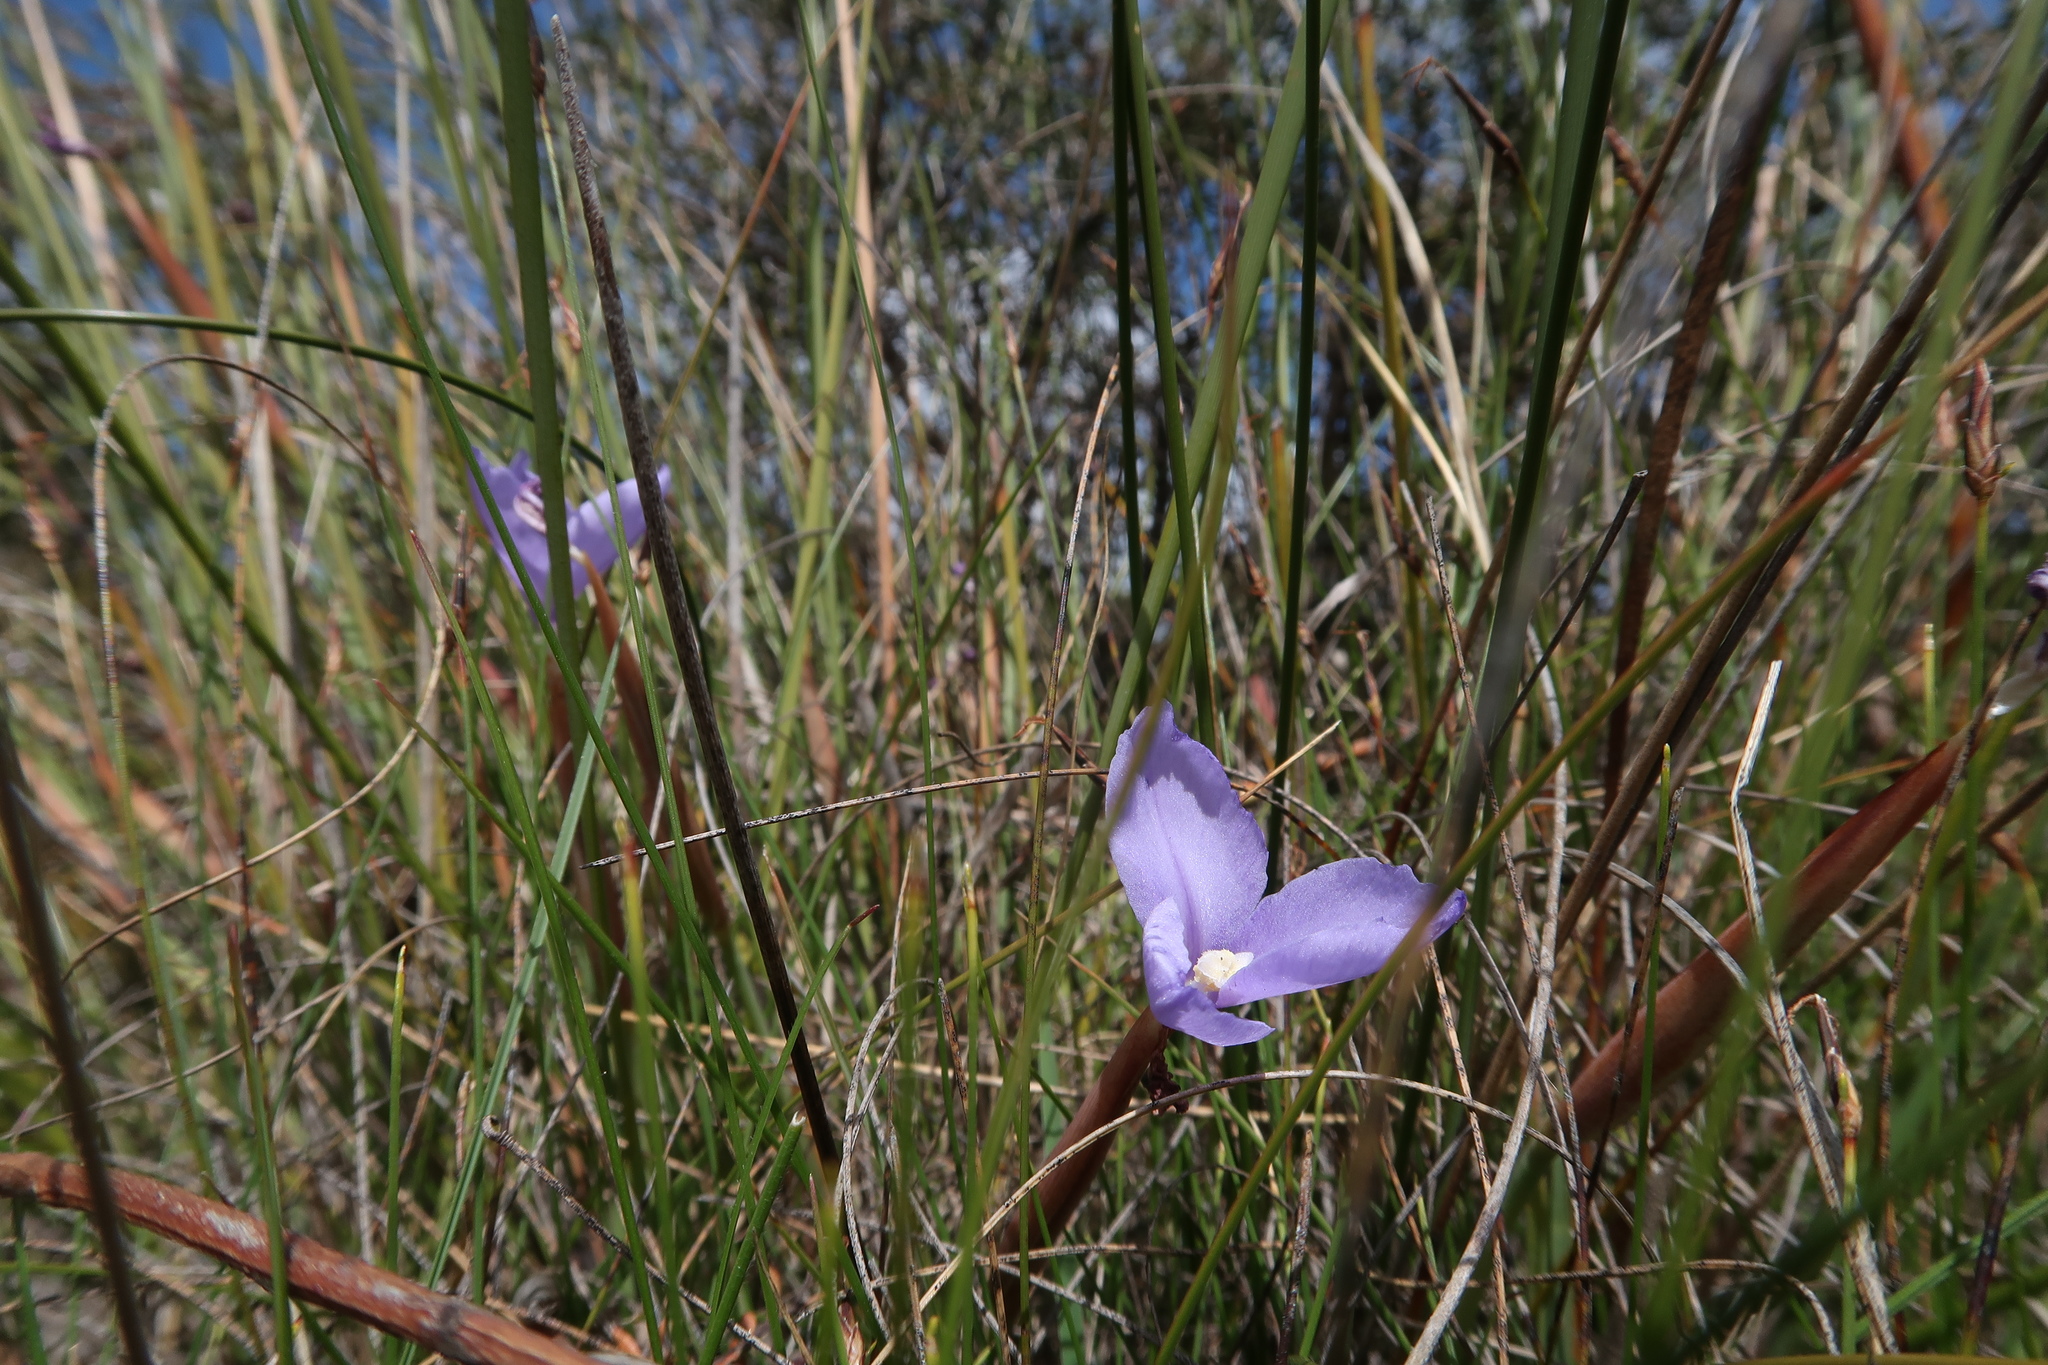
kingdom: Plantae
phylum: Tracheophyta
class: Liliopsida
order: Asparagales
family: Iridaceae
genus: Patersonia
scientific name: Patersonia fragilis
